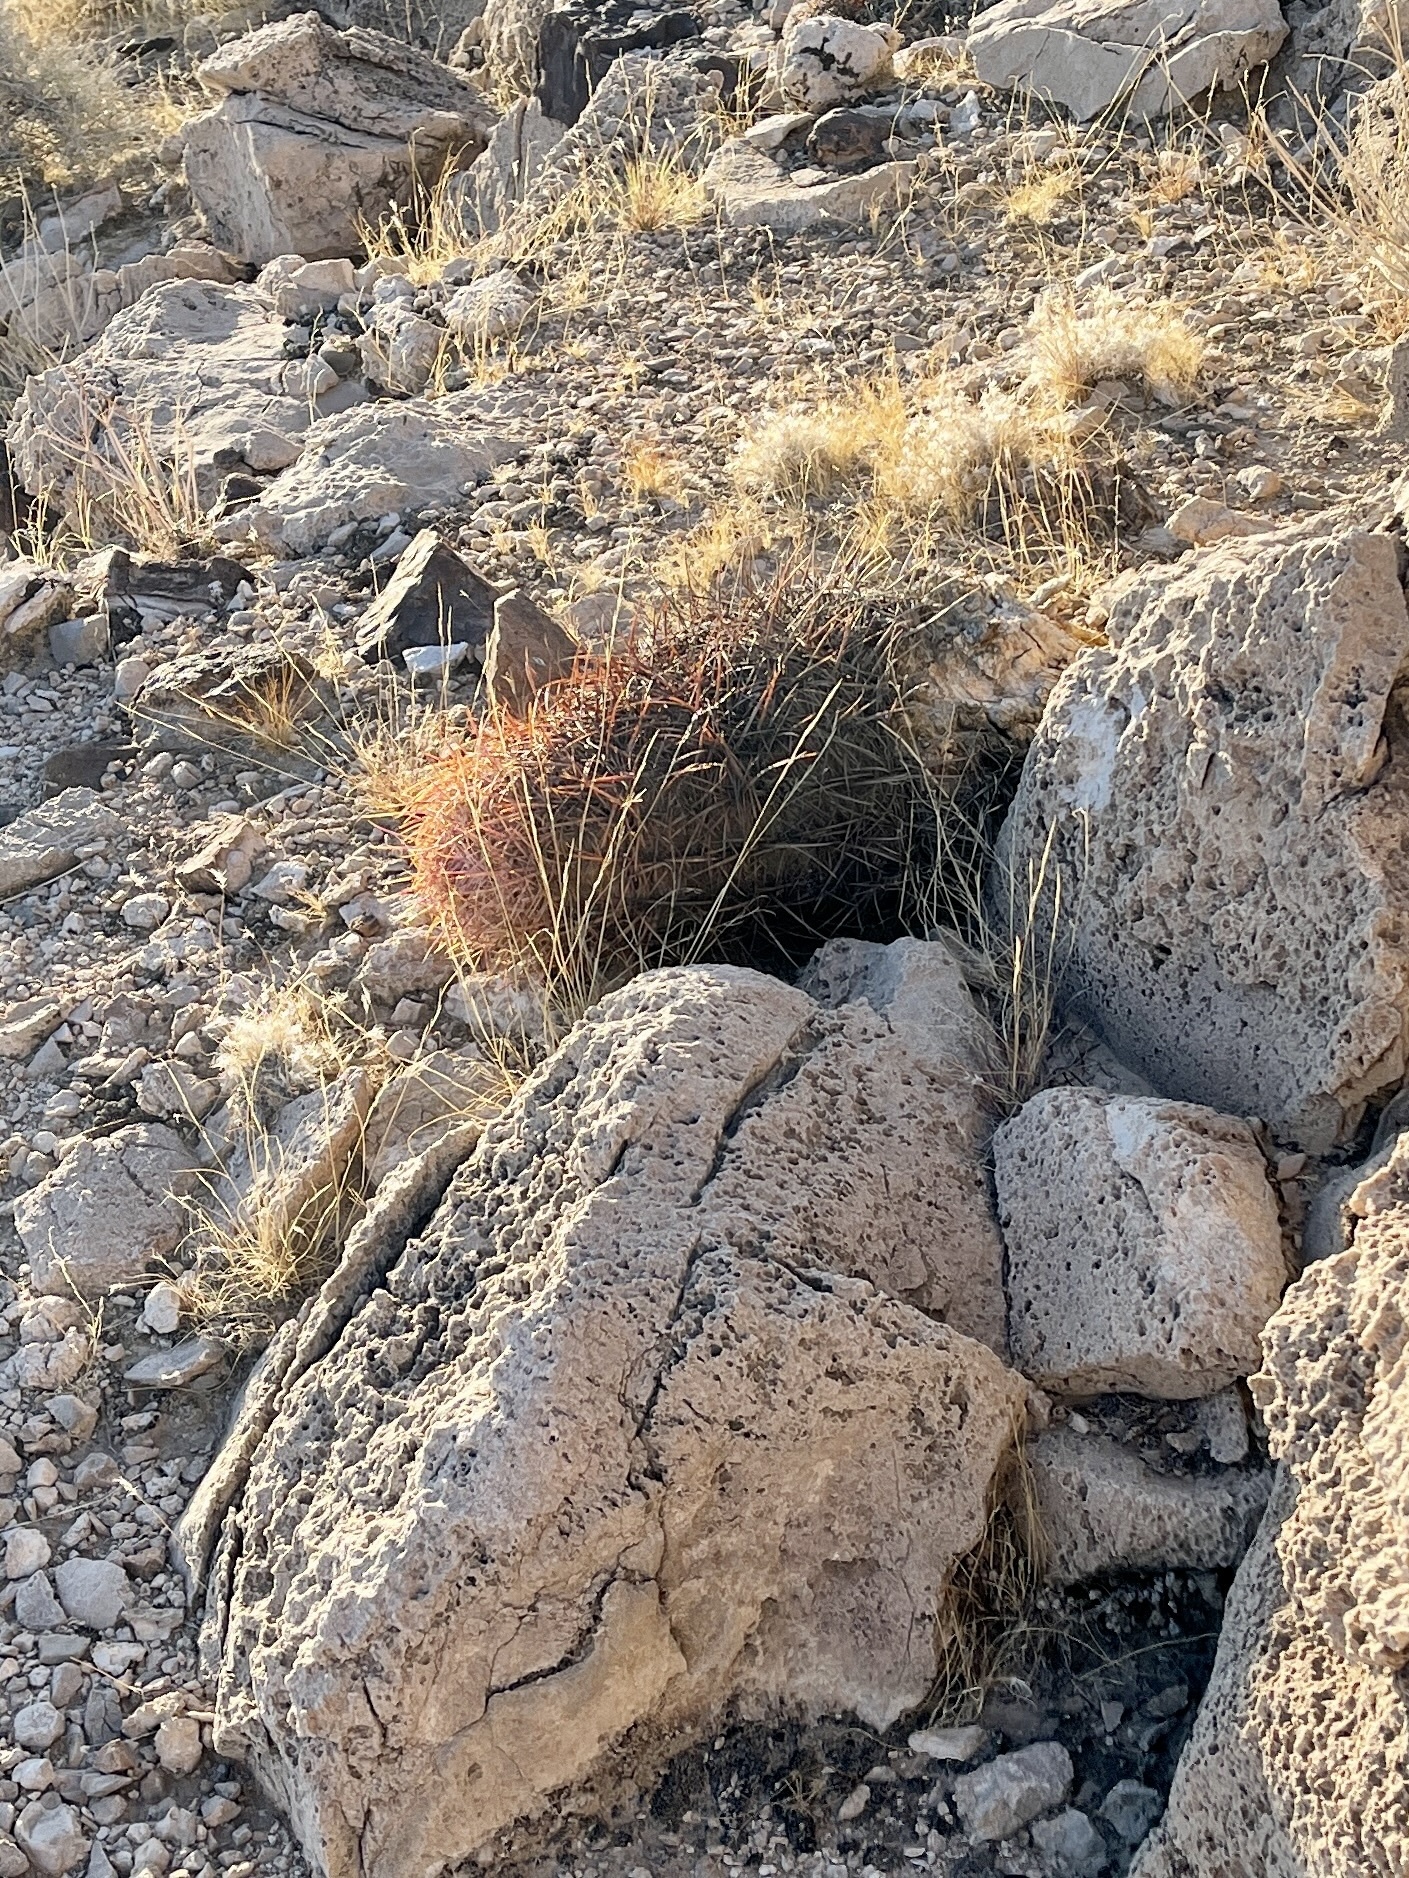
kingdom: Plantae
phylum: Tracheophyta
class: Magnoliopsida
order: Caryophyllales
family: Cactaceae
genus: Ferocactus
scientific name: Ferocactus cylindraceus
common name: California barrel cactus
